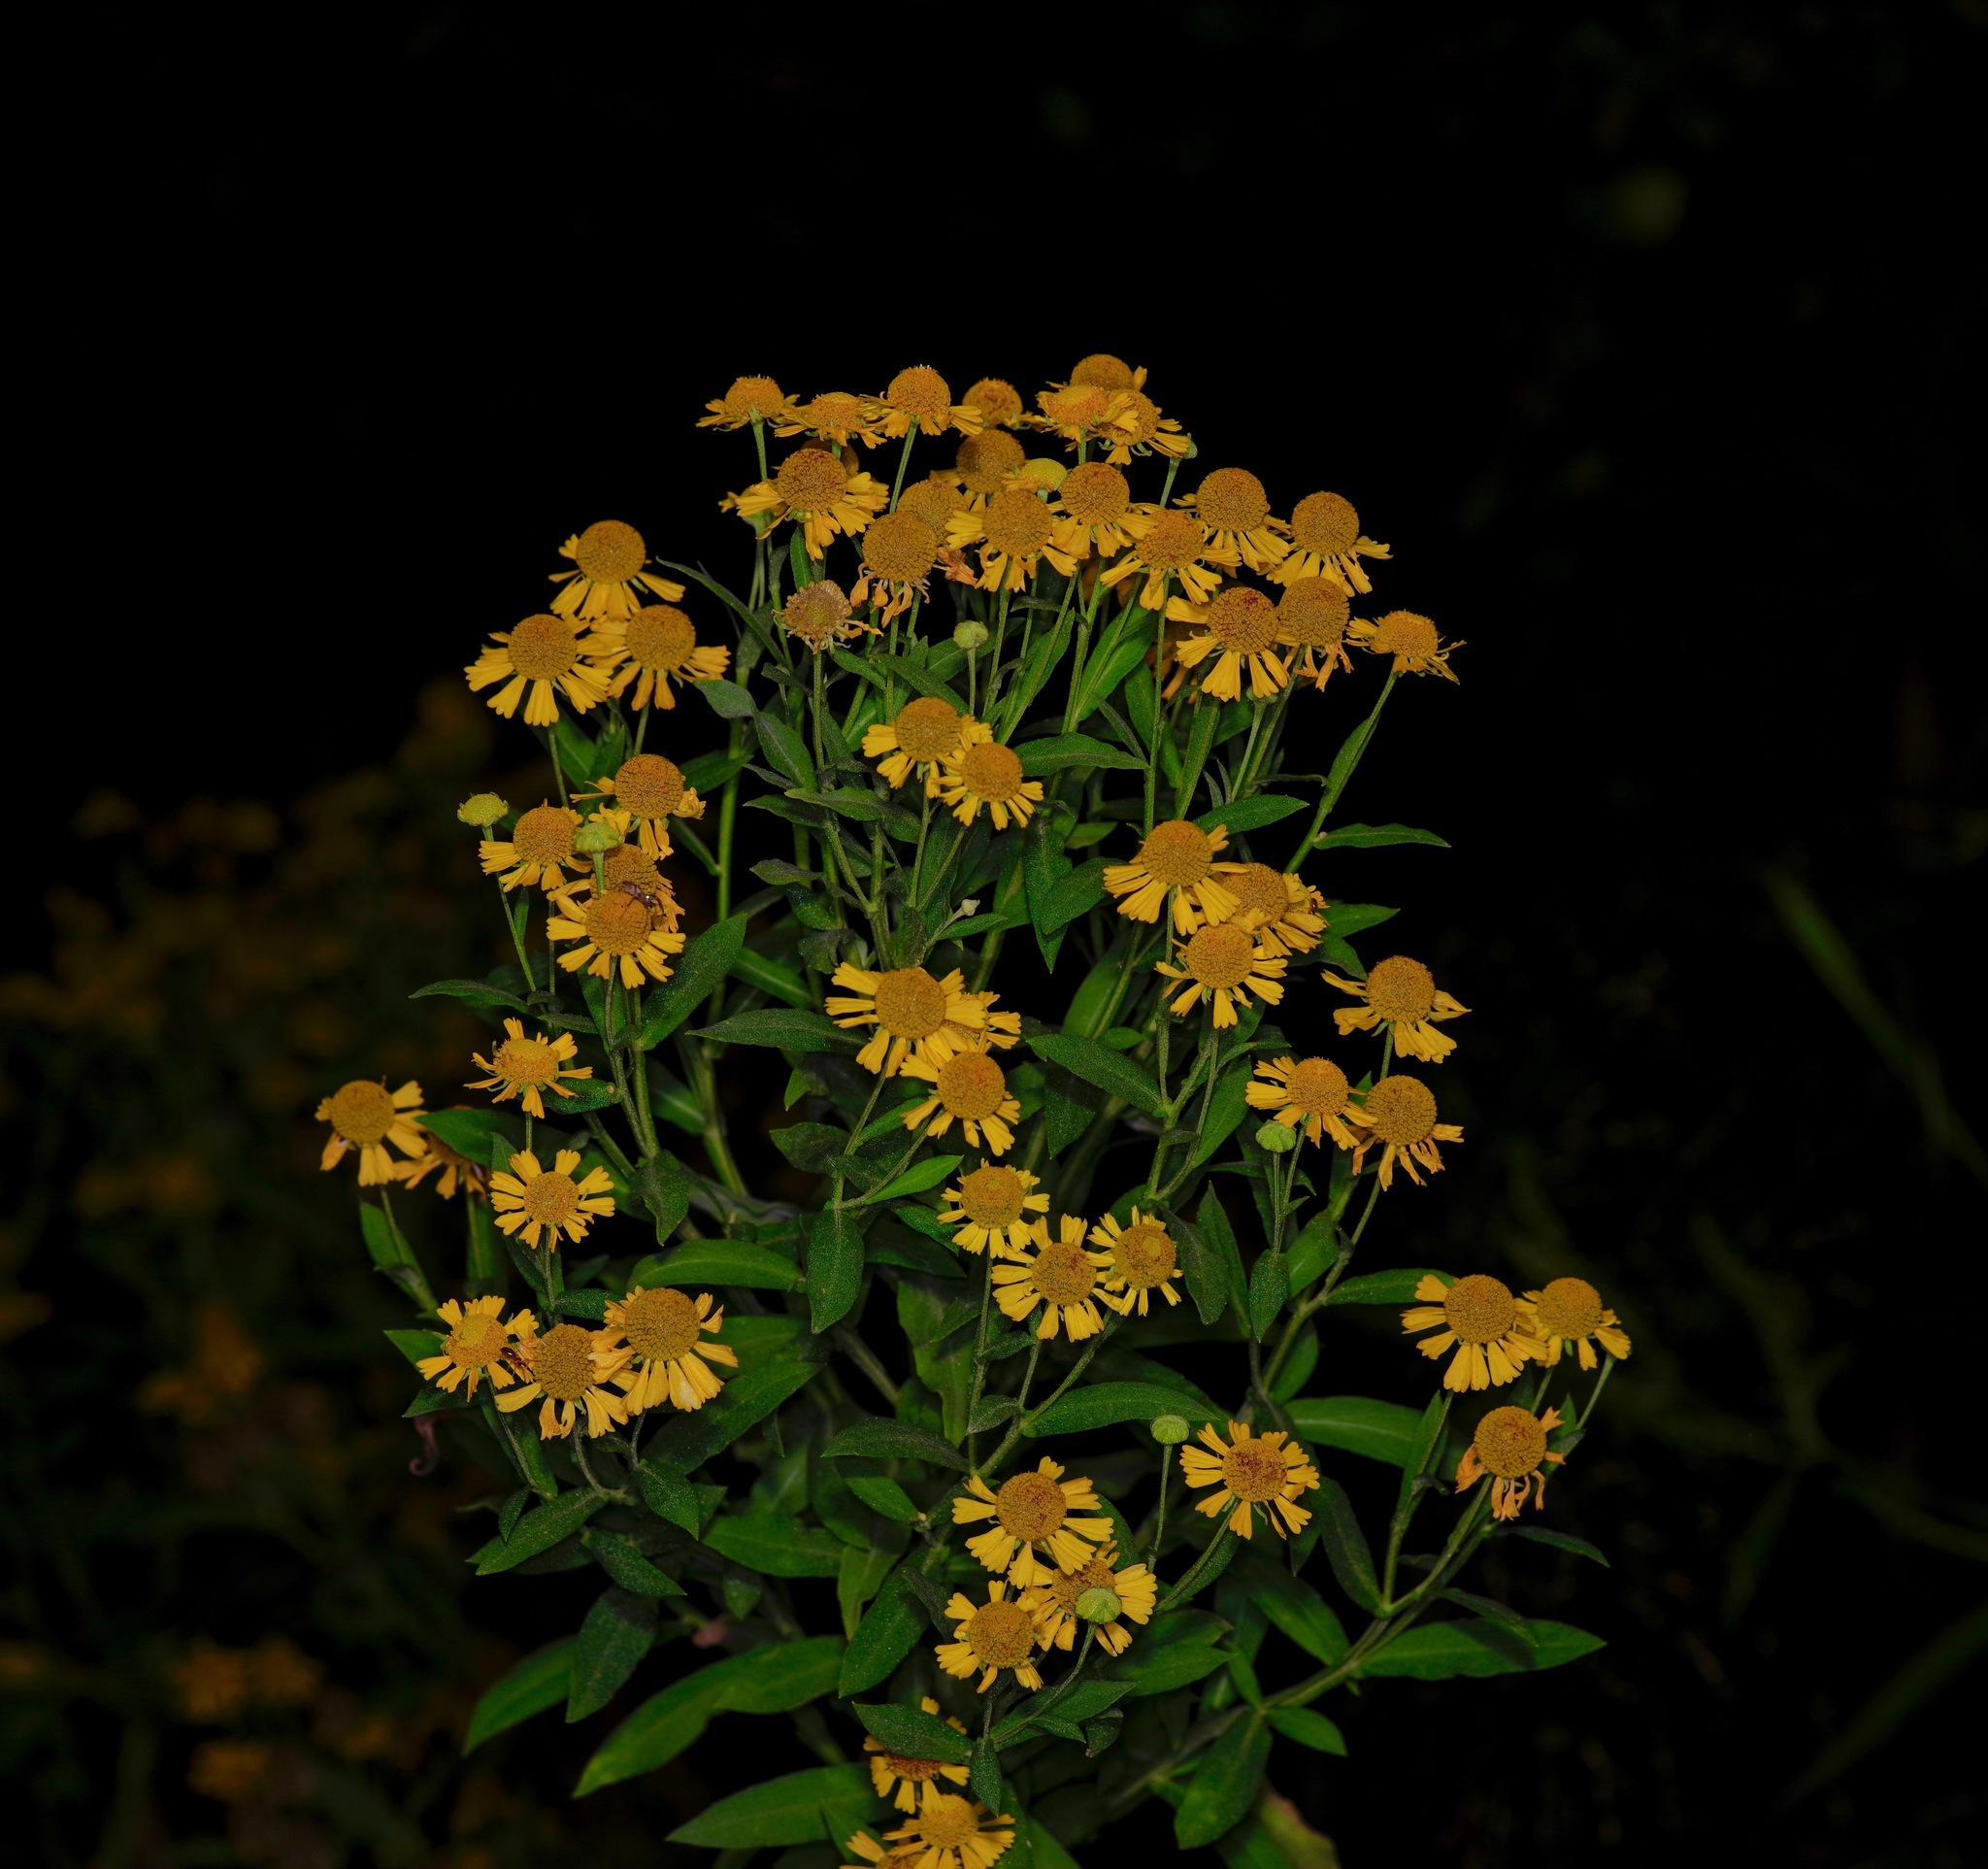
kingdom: Plantae
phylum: Tracheophyta
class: Magnoliopsida
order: Asterales
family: Asteraceae
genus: Helenium
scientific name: Helenium autumnale
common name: Sneezeweed
